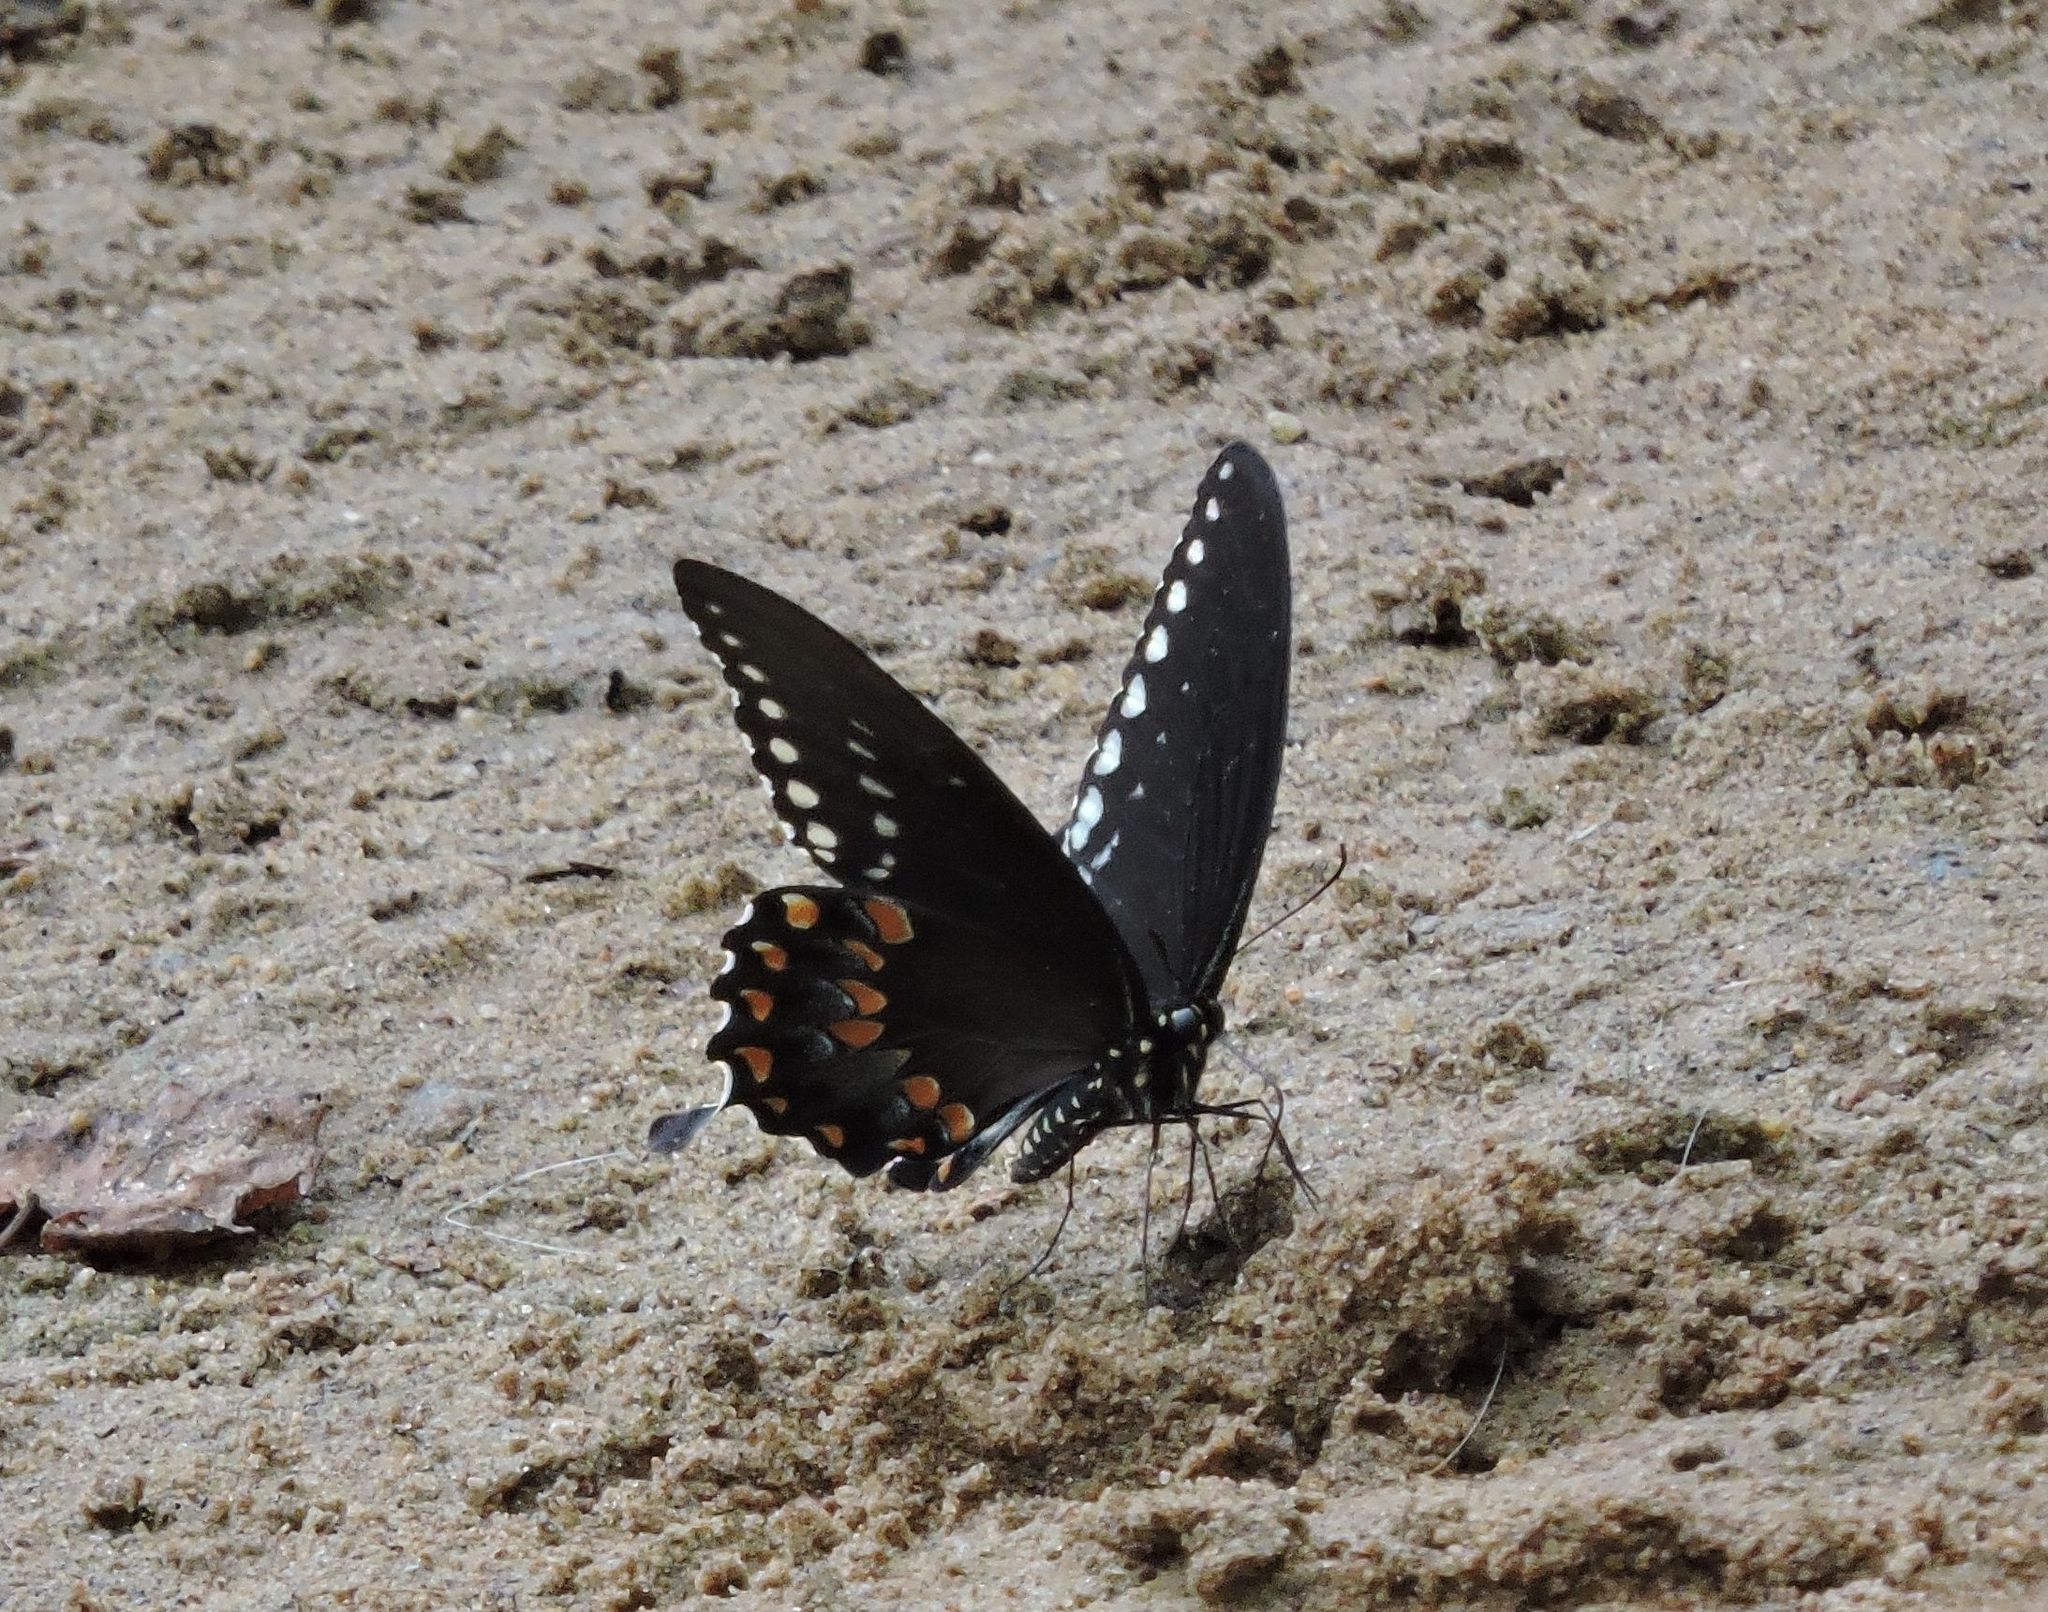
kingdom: Animalia
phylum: Arthropoda
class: Insecta
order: Lepidoptera
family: Papilionidae
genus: Papilio
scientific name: Papilio troilus
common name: Spicebush swallowtail
